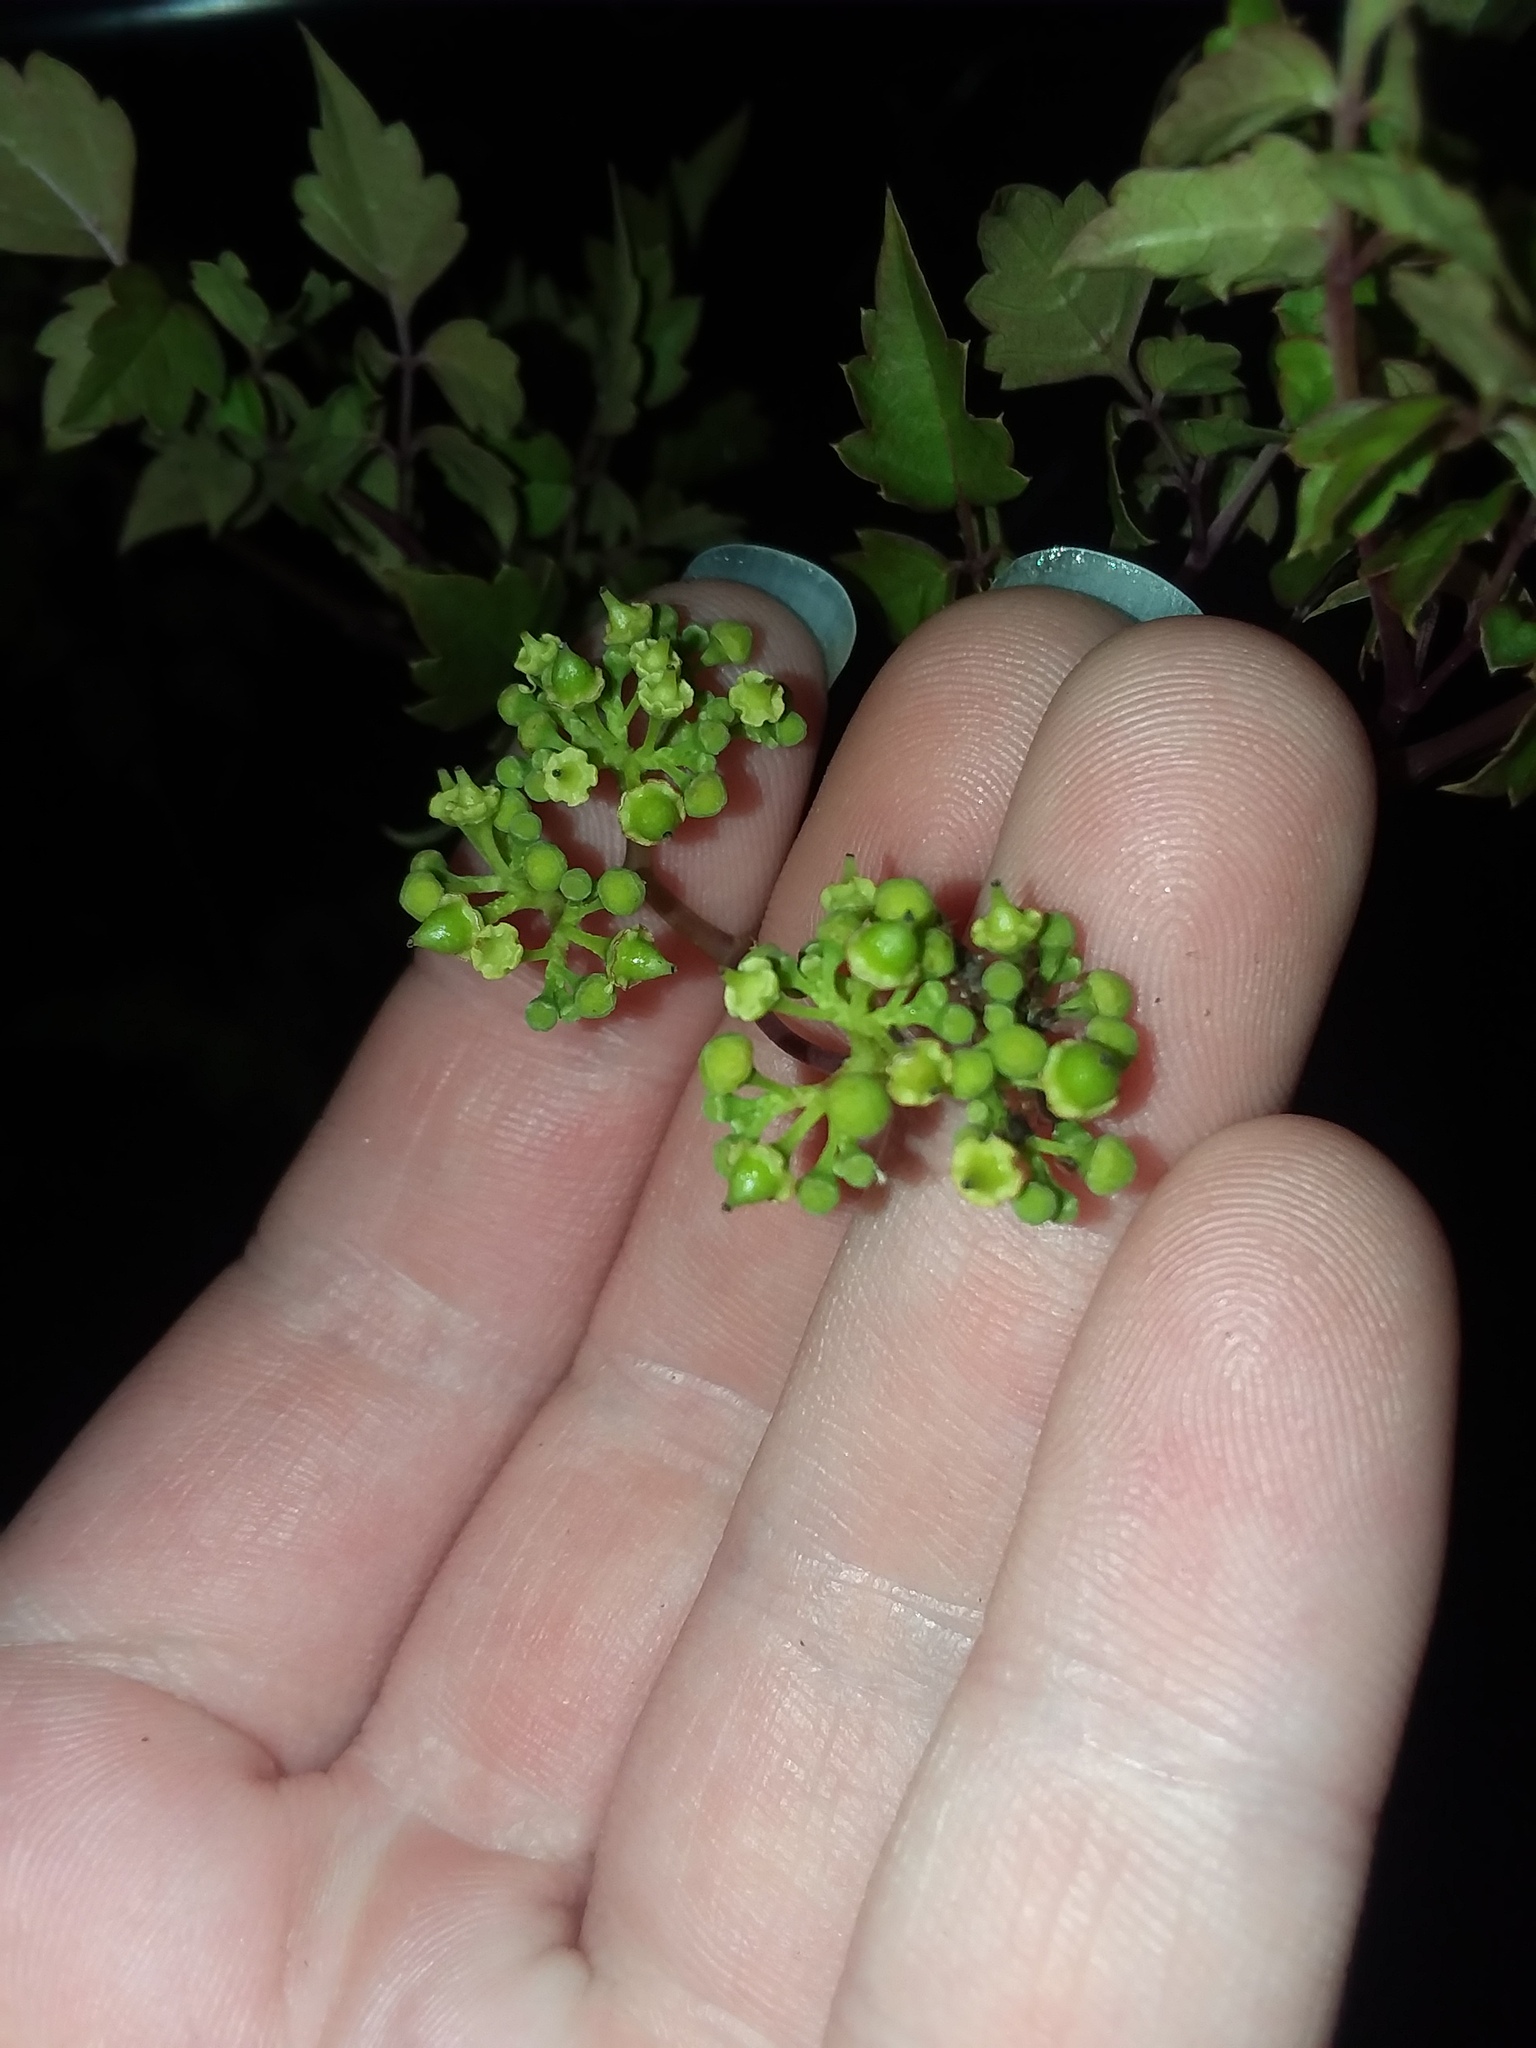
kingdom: Plantae
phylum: Tracheophyta
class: Magnoliopsida
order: Vitales
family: Vitaceae
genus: Nekemias
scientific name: Nekemias arborea
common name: Peppervine
